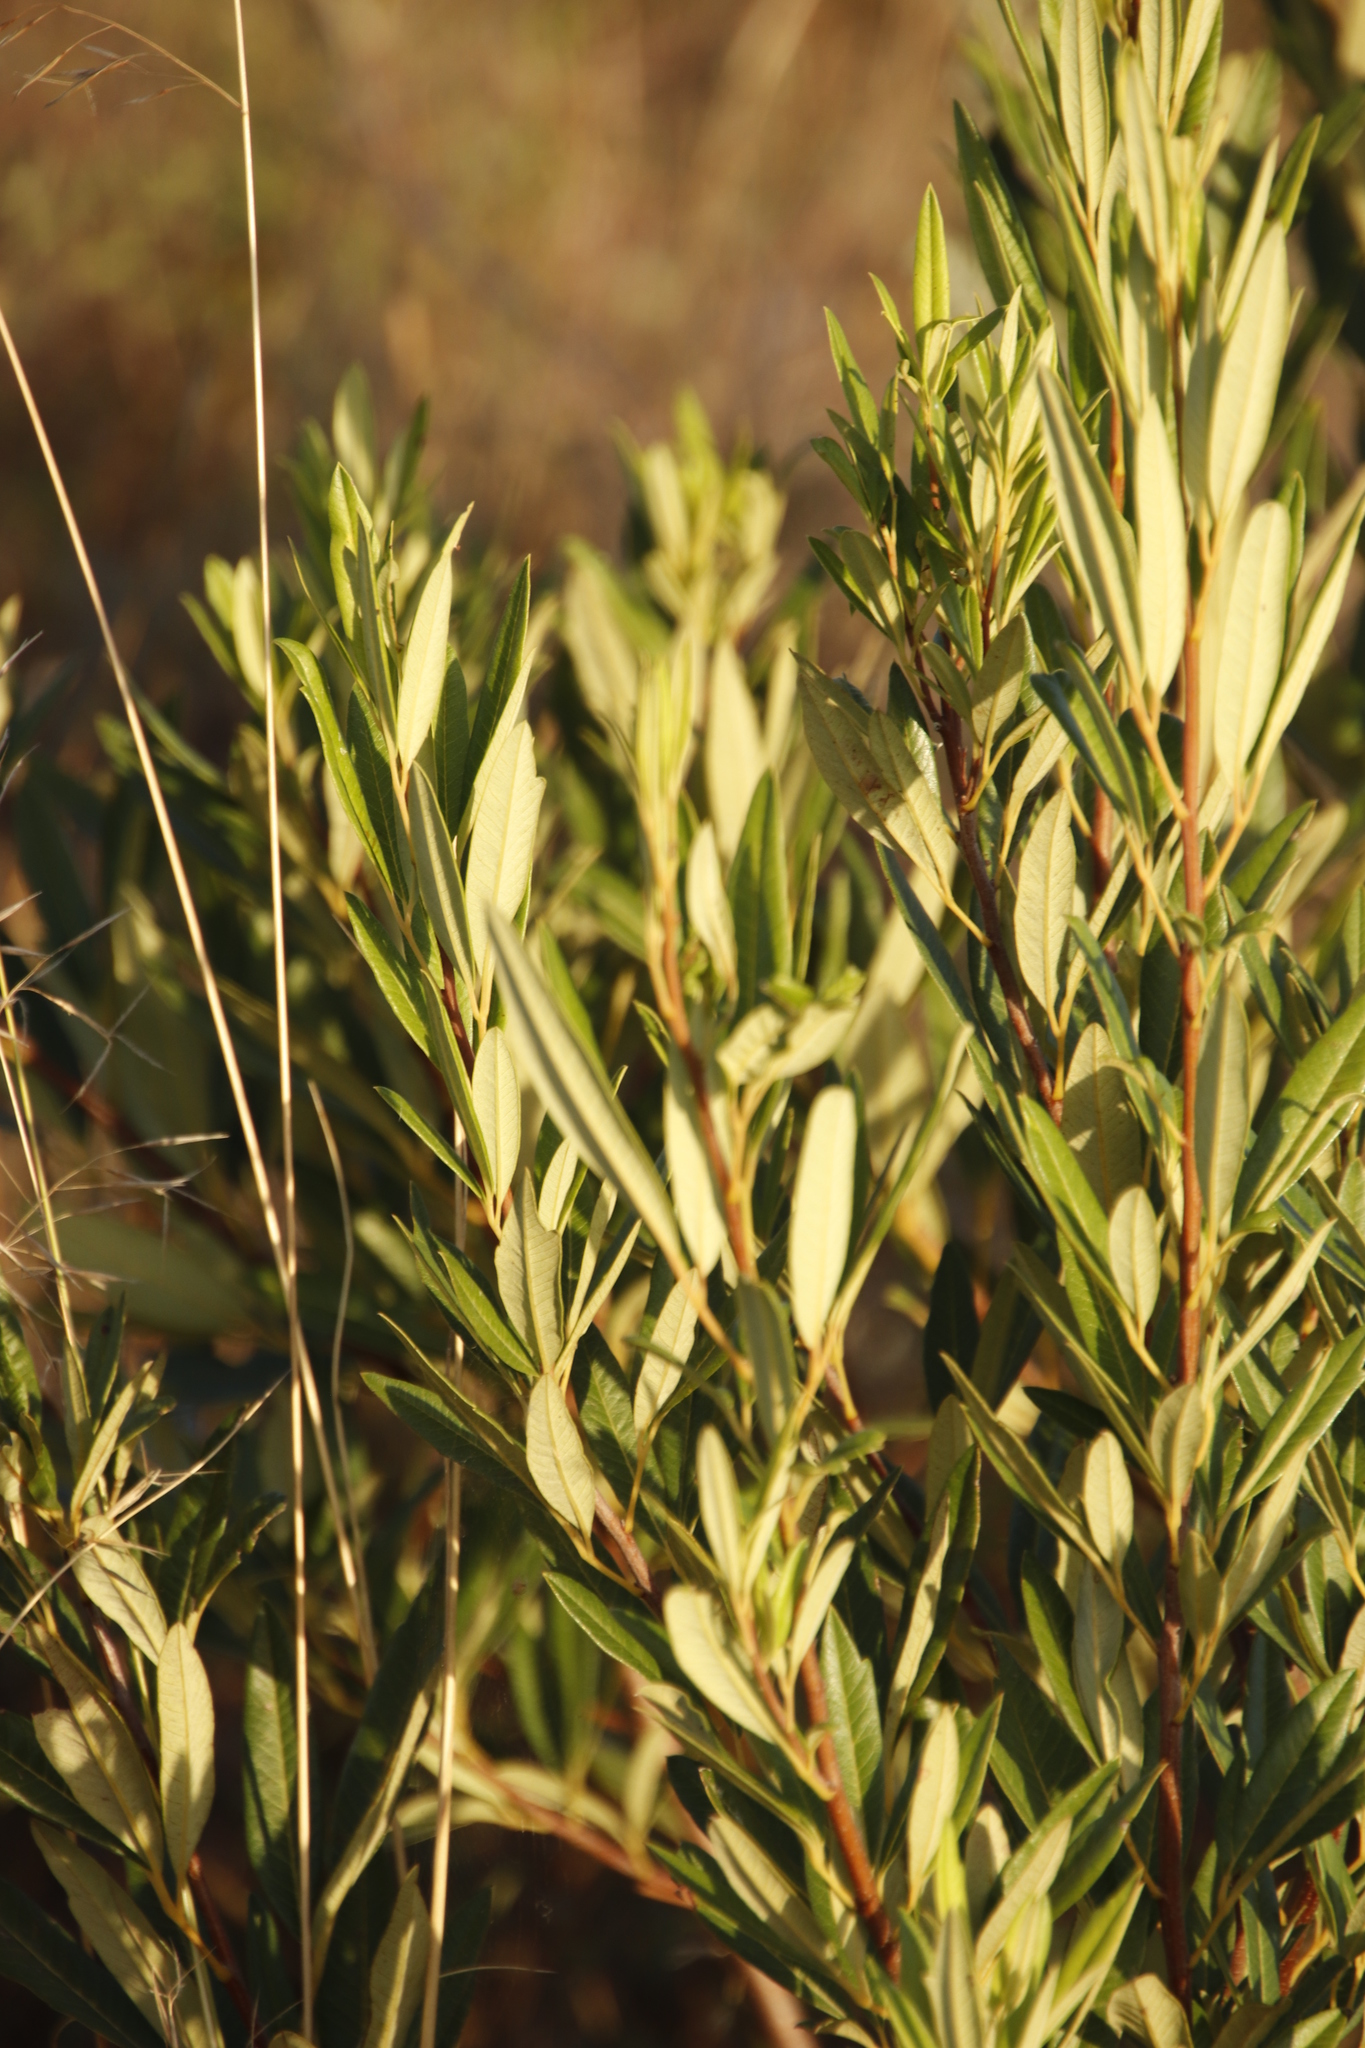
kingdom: Plantae
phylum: Tracheophyta
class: Magnoliopsida
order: Sapindales
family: Anacardiaceae
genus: Searsia
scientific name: Searsia angustifolia
